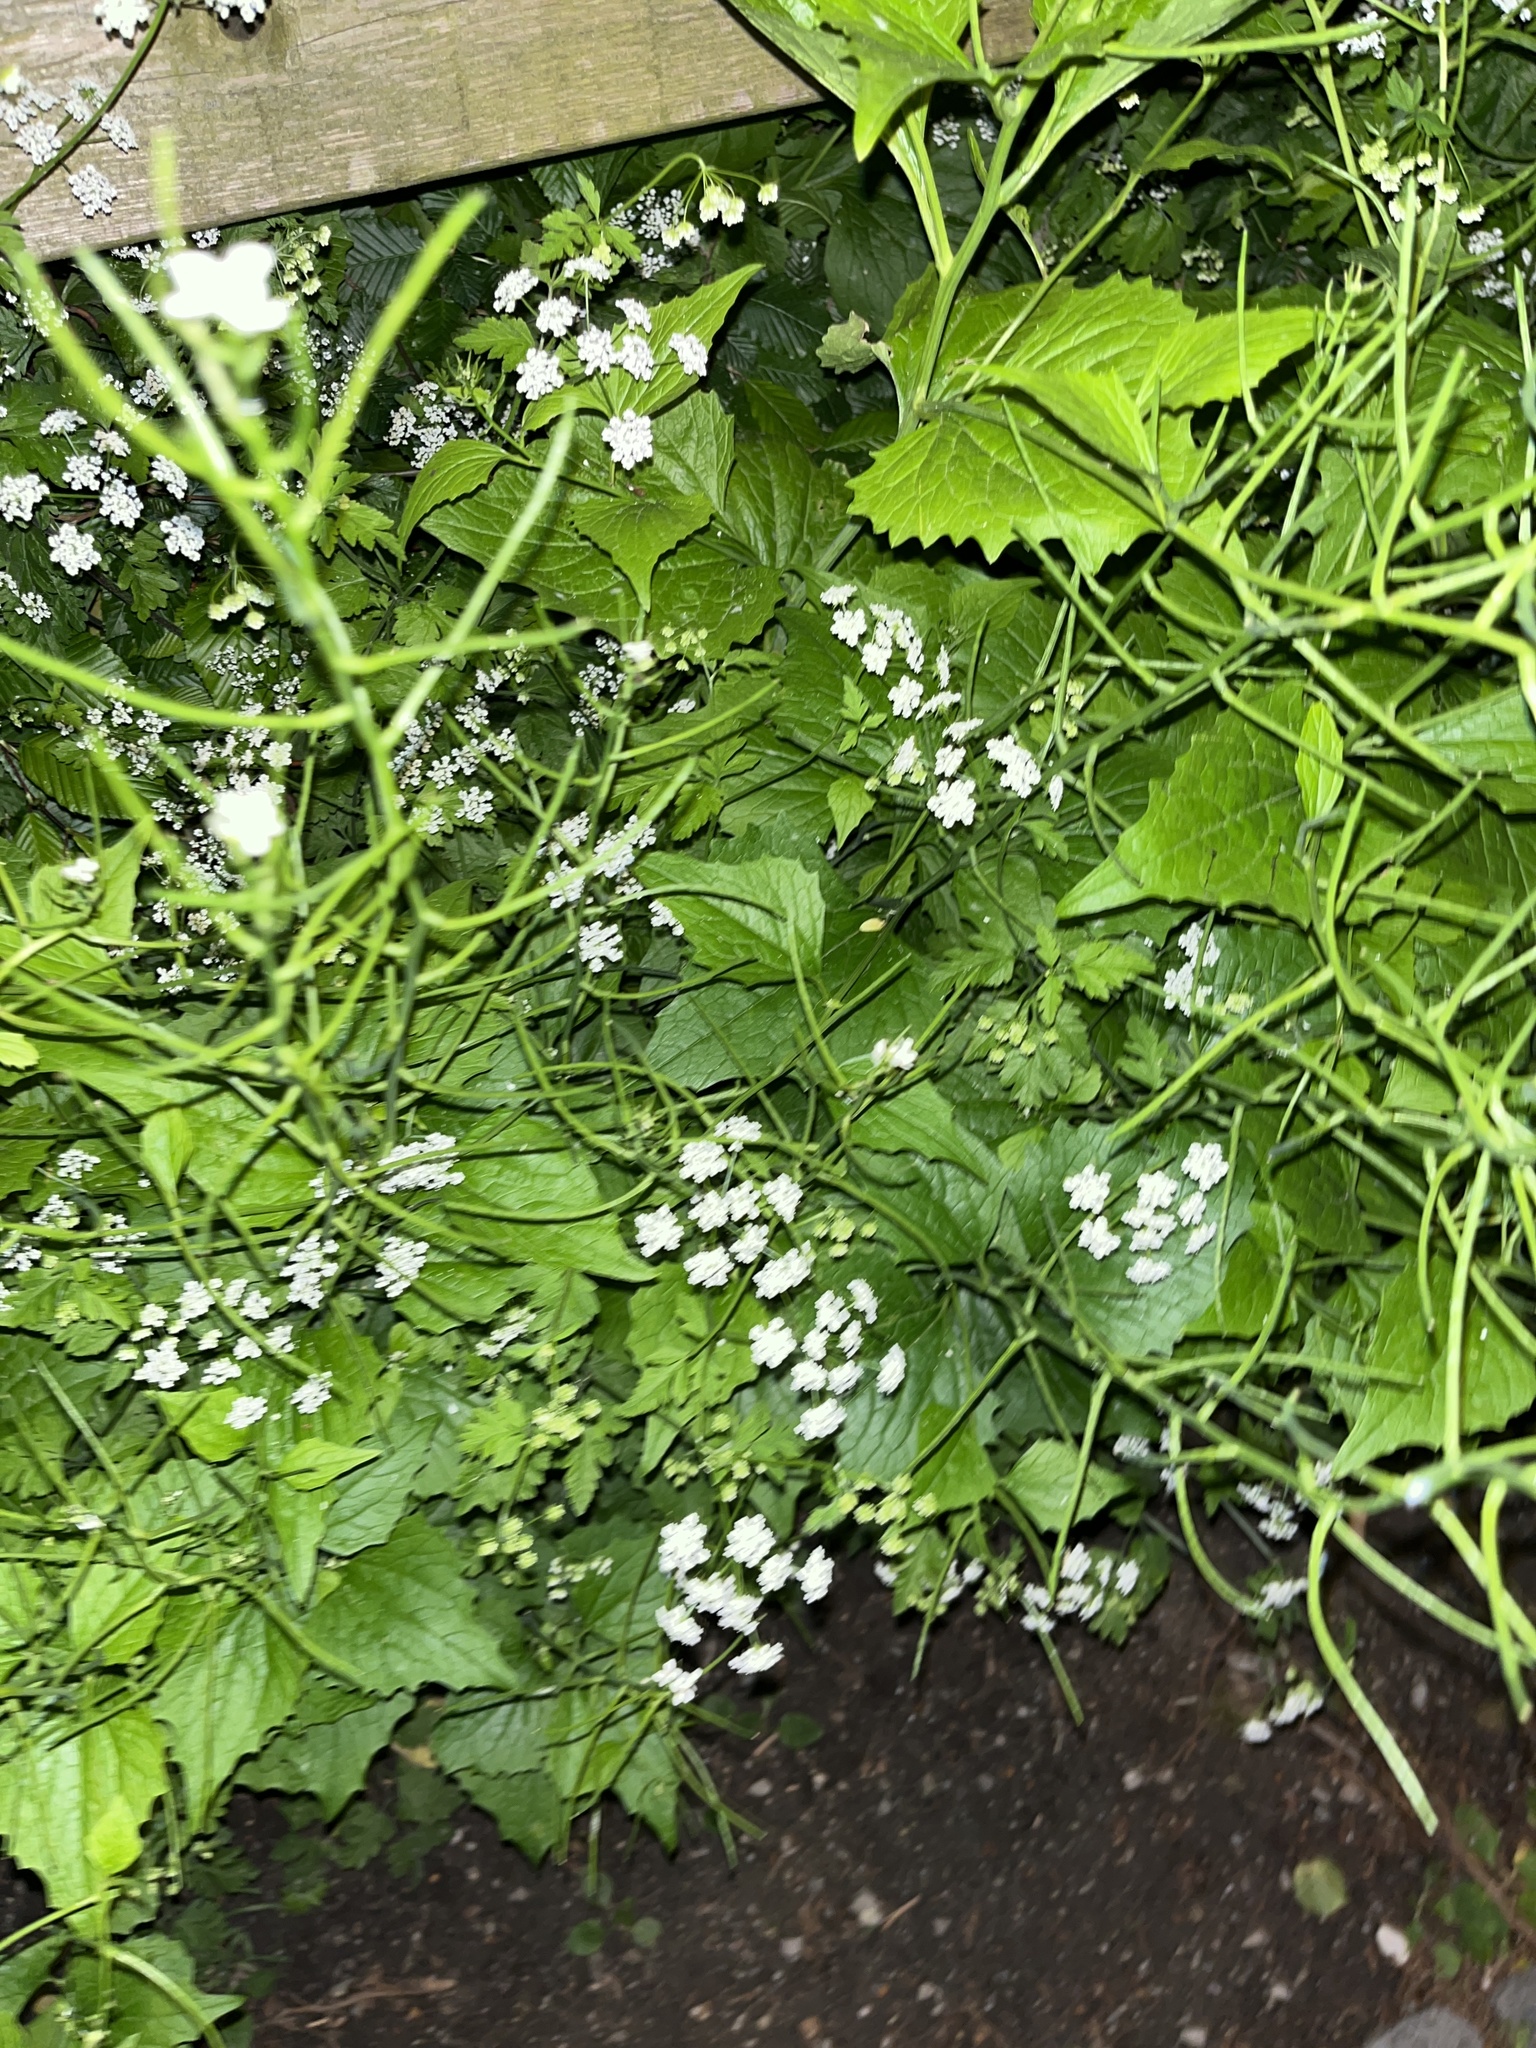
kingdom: Plantae
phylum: Tracheophyta
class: Magnoliopsida
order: Brassicales
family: Brassicaceae
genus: Alliaria
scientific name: Alliaria petiolata
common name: Garlic mustard
